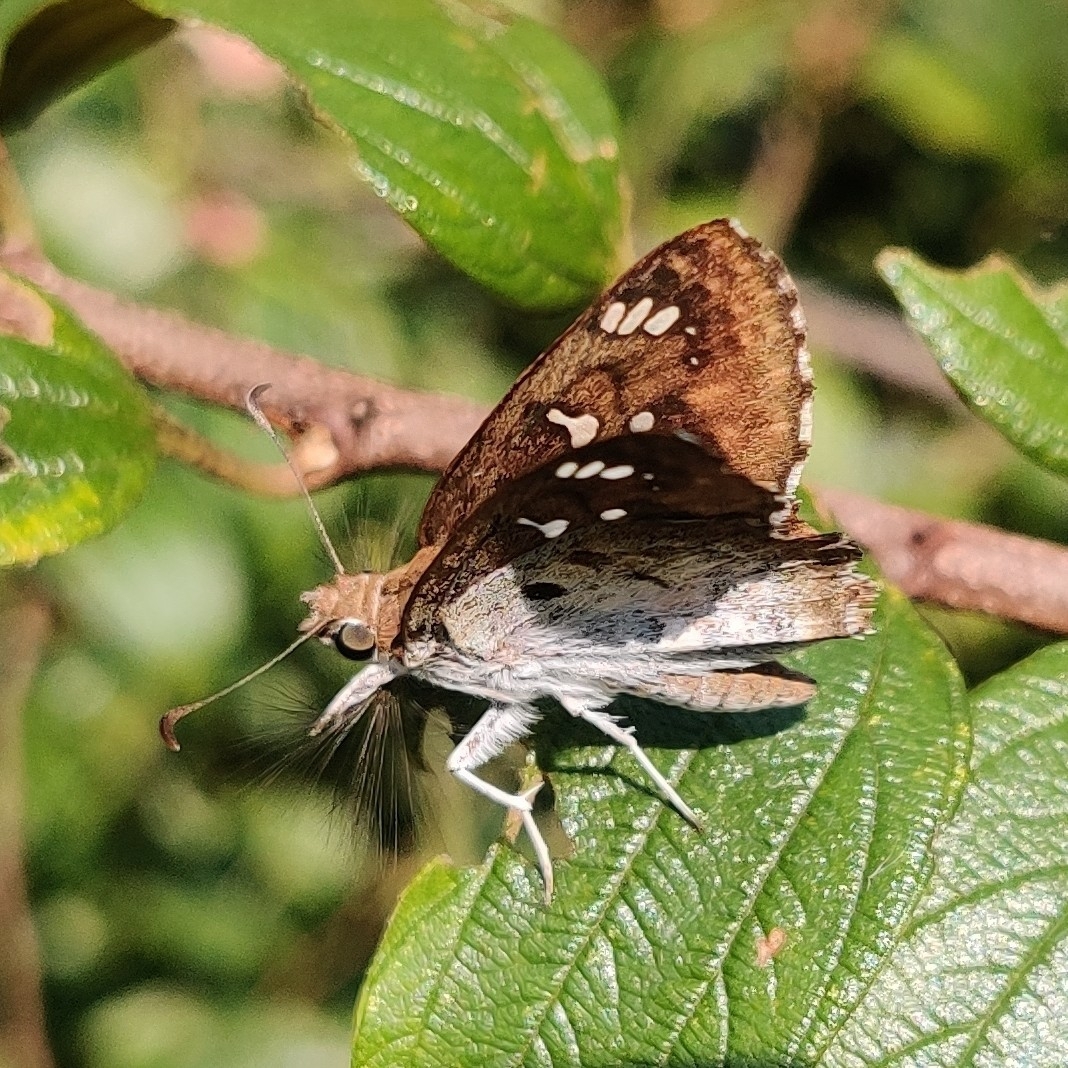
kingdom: Animalia
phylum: Arthropoda
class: Insecta
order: Lepidoptera
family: Hesperiidae
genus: Caprona
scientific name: Caprona ransonnettii
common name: Golden angle
